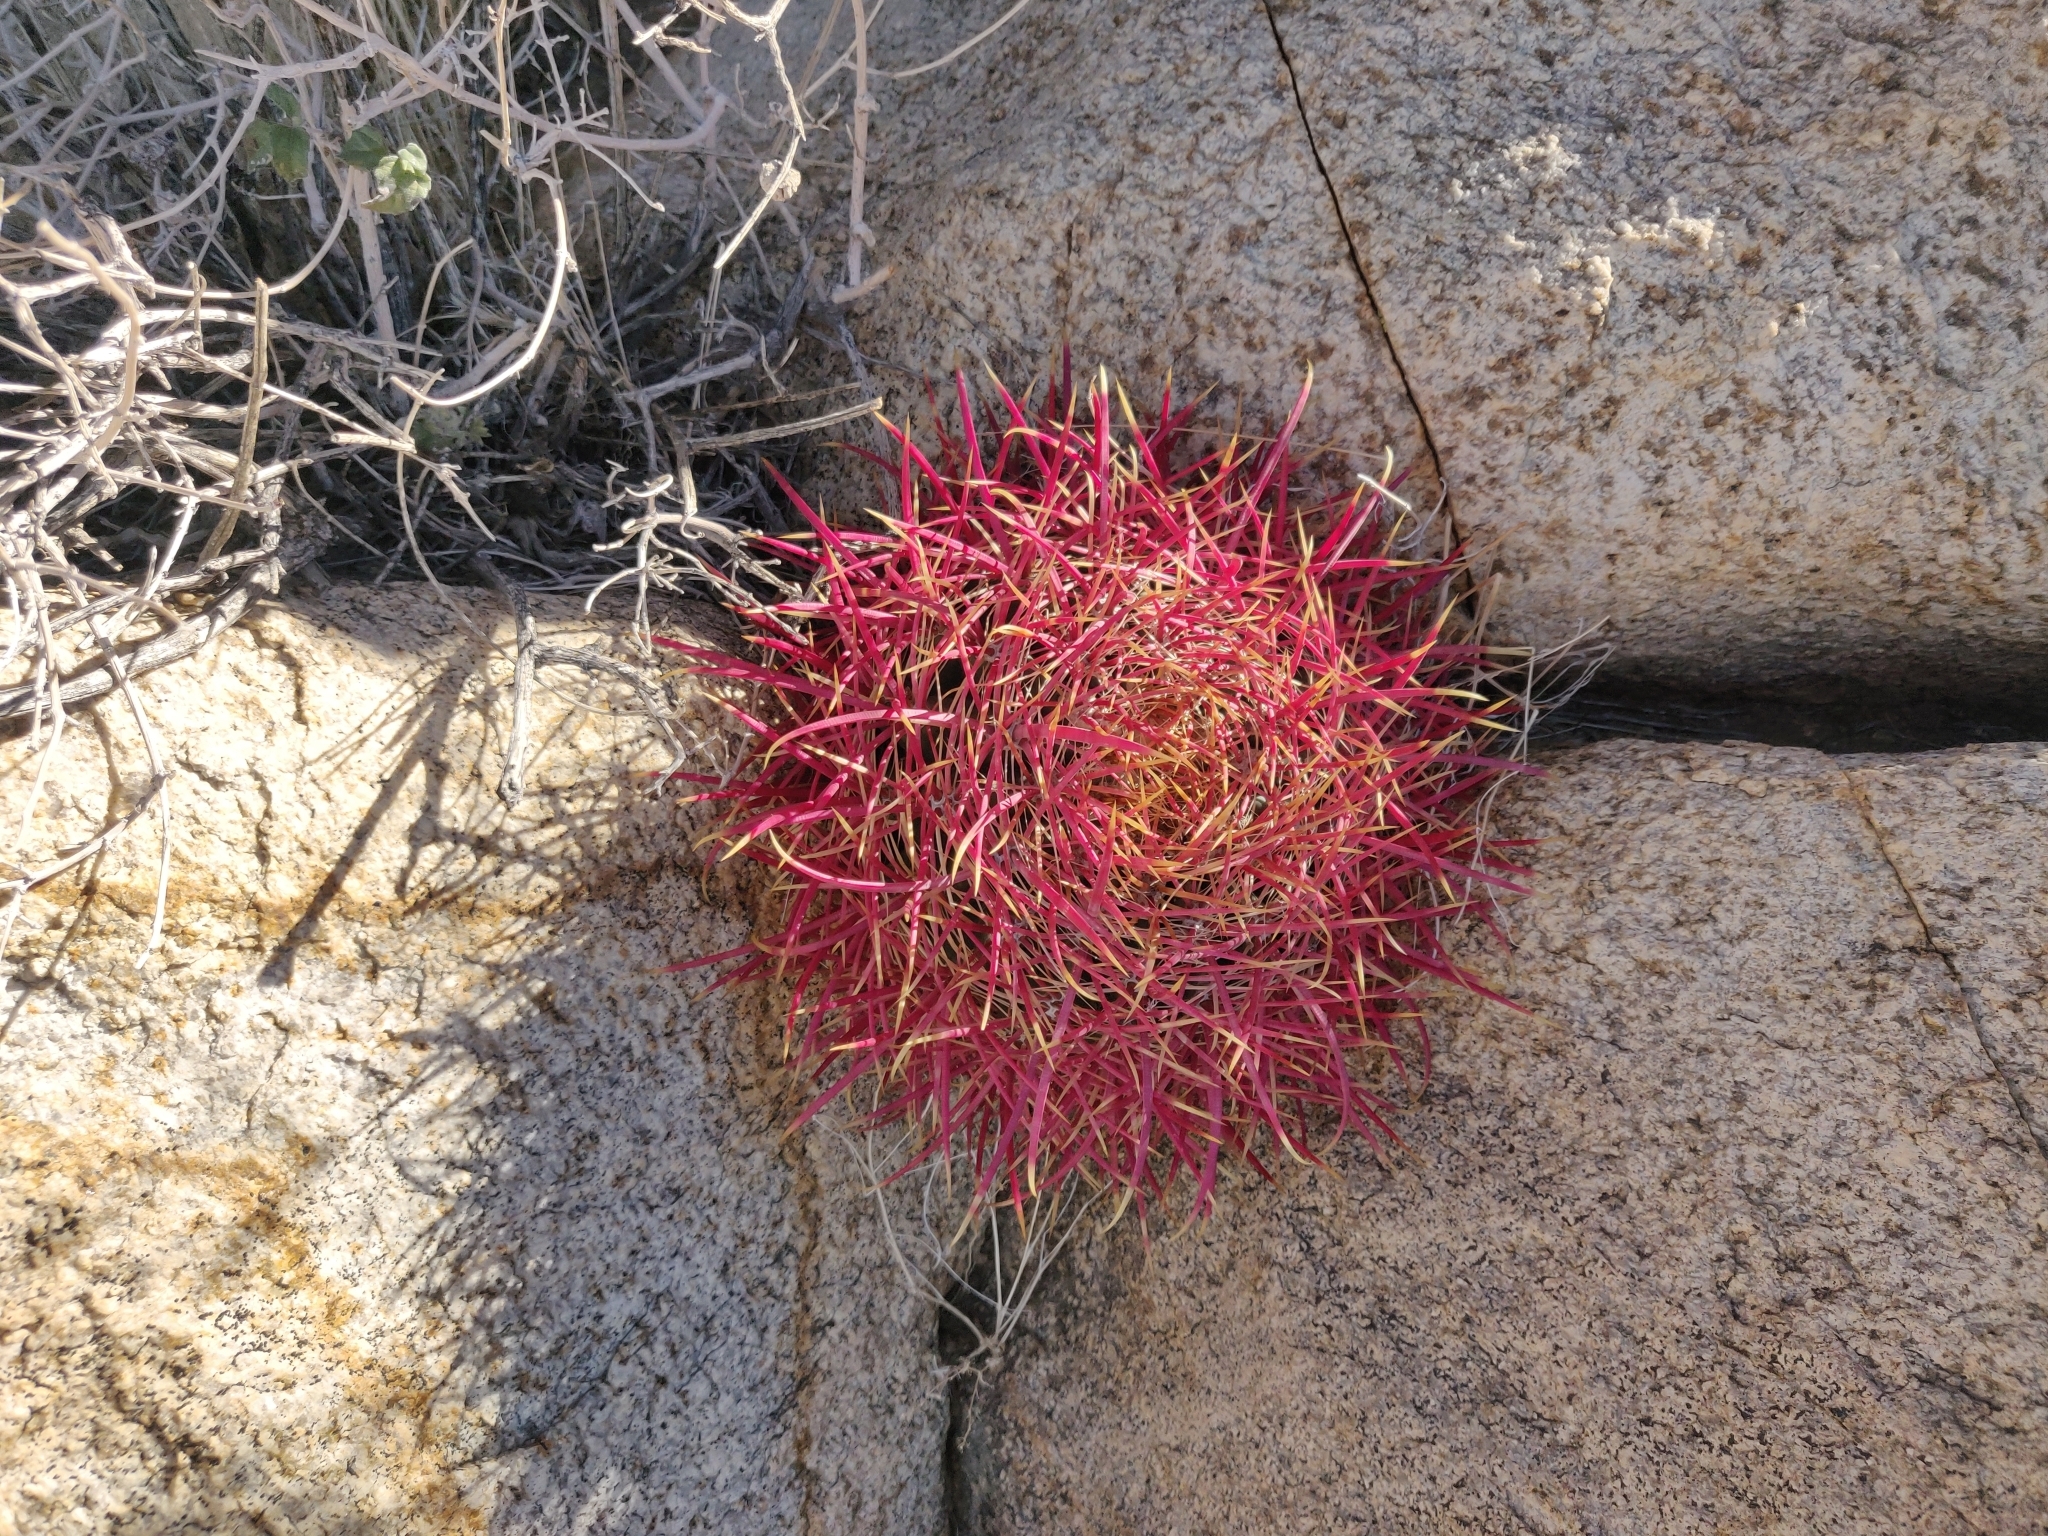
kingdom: Plantae
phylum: Tracheophyta
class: Magnoliopsida
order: Caryophyllales
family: Cactaceae
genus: Ferocactus
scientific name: Ferocactus cylindraceus
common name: California barrel cactus
